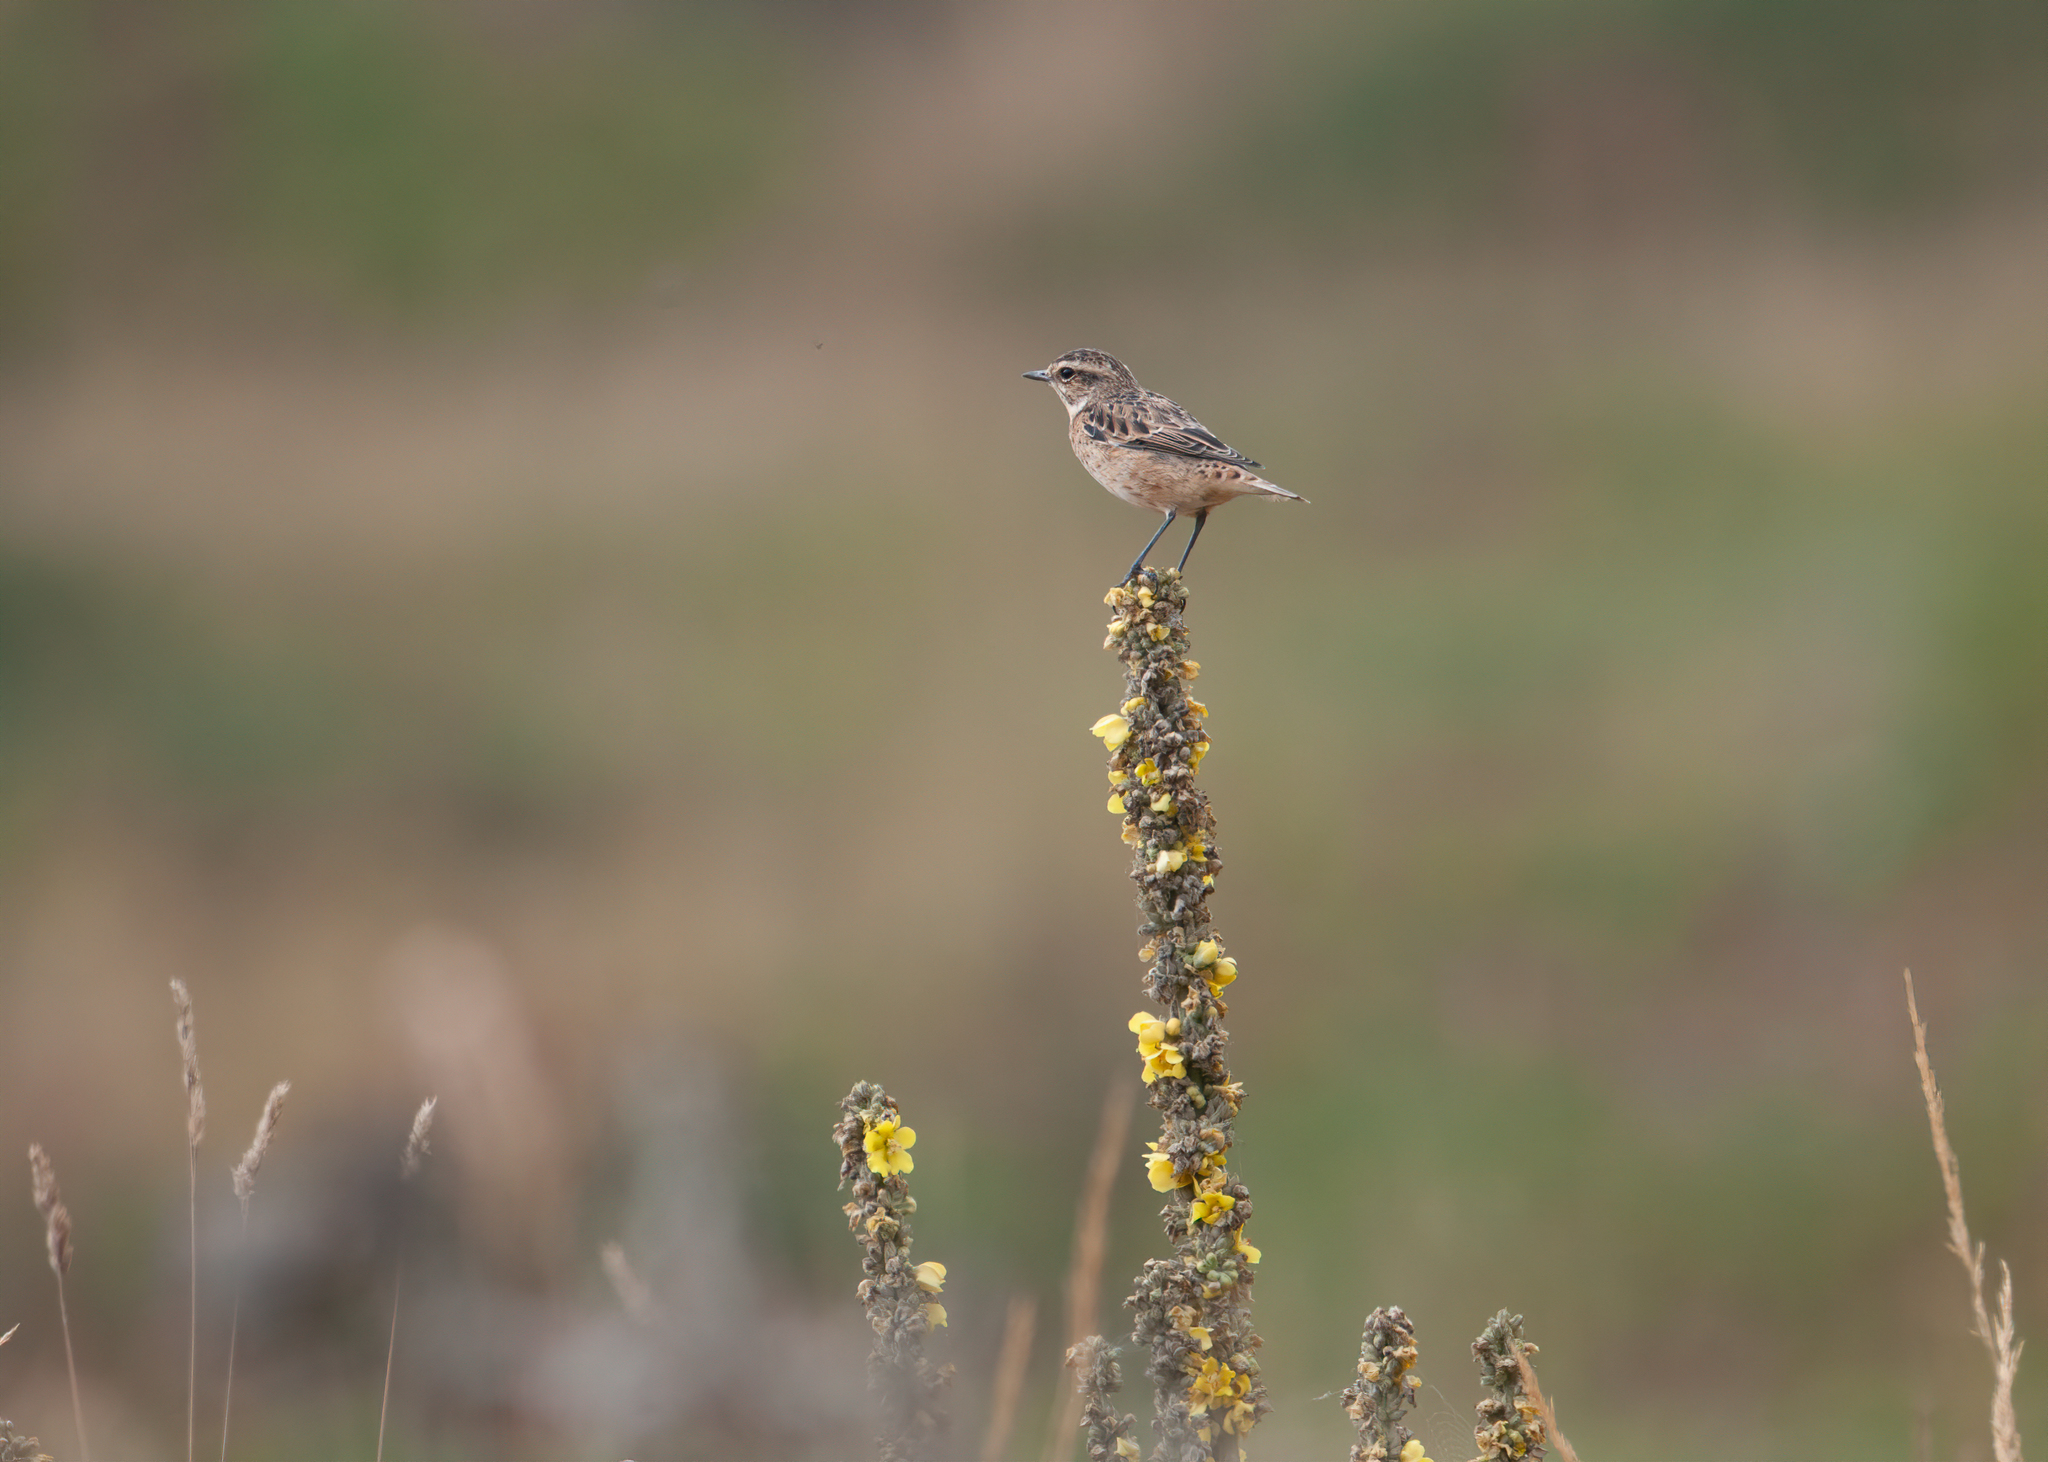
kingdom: Animalia
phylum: Chordata
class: Aves
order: Passeriformes
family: Muscicapidae
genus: Saxicola
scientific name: Saxicola rubetra
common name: Whinchat
